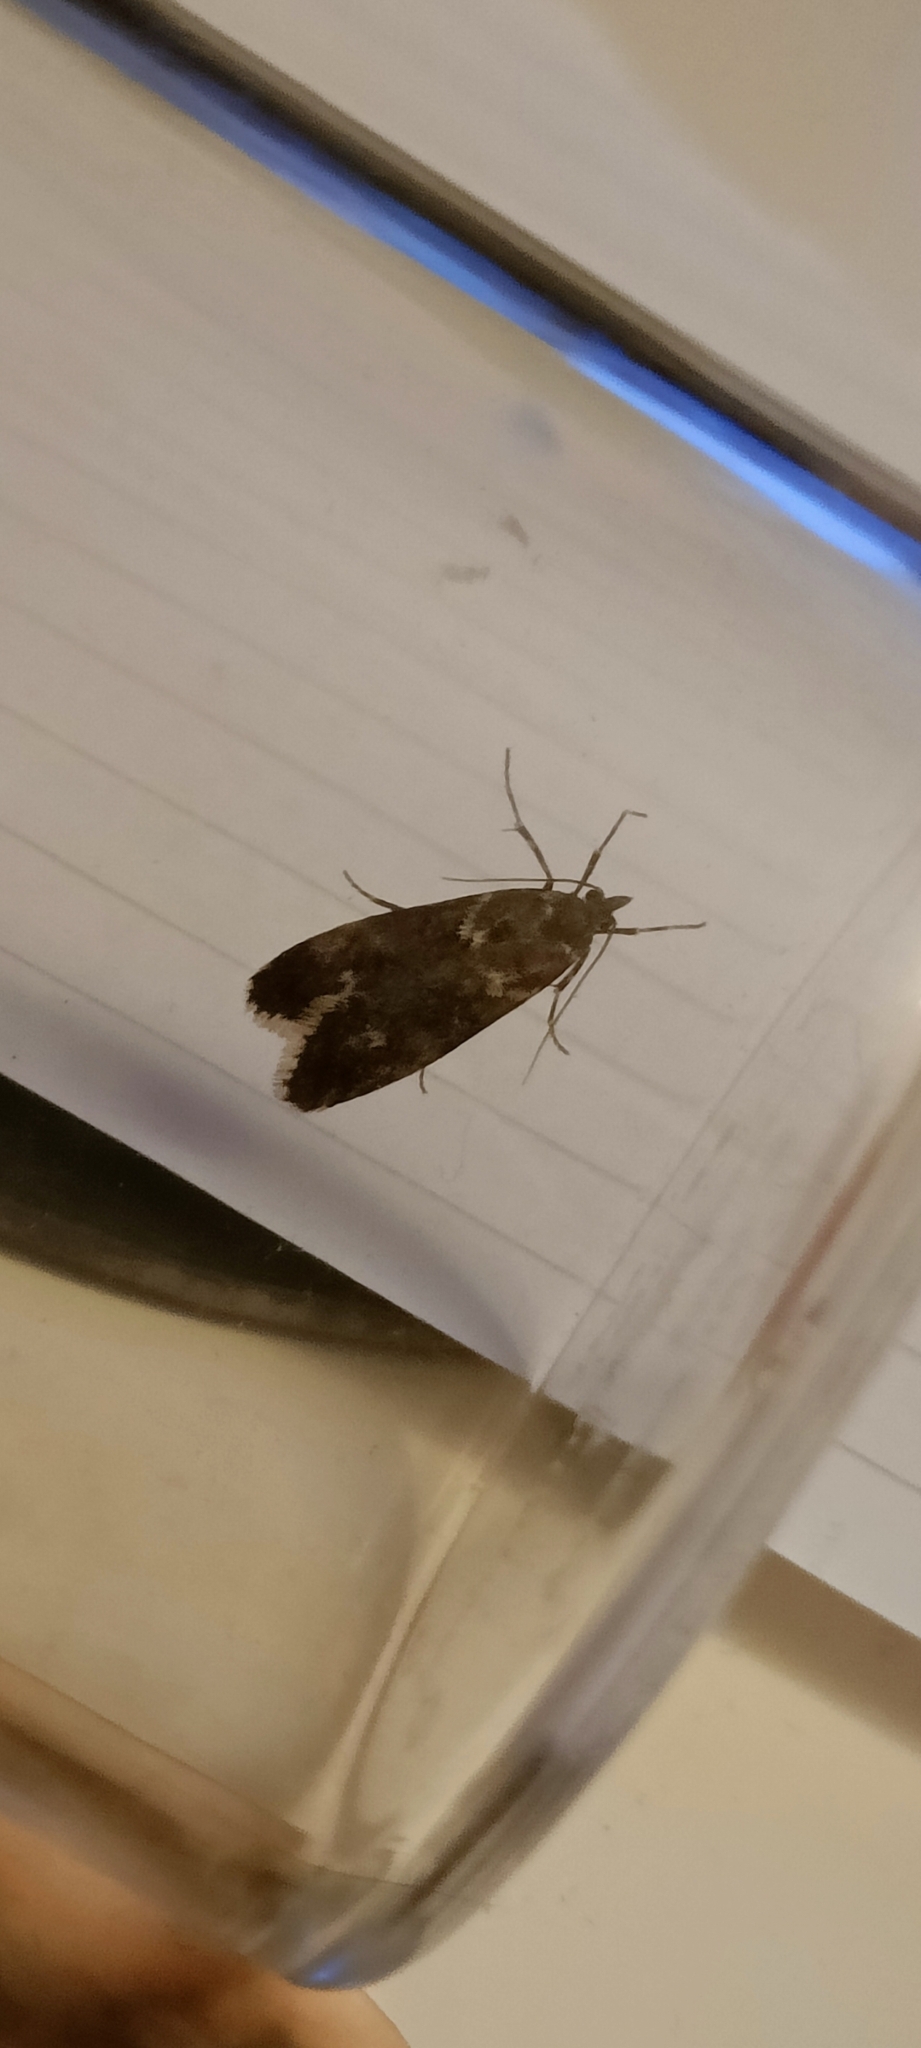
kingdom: Animalia
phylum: Arthropoda
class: Insecta
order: Lepidoptera
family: Lypusidae
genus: Diurnea
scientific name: Diurnea fagella
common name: March tubic
